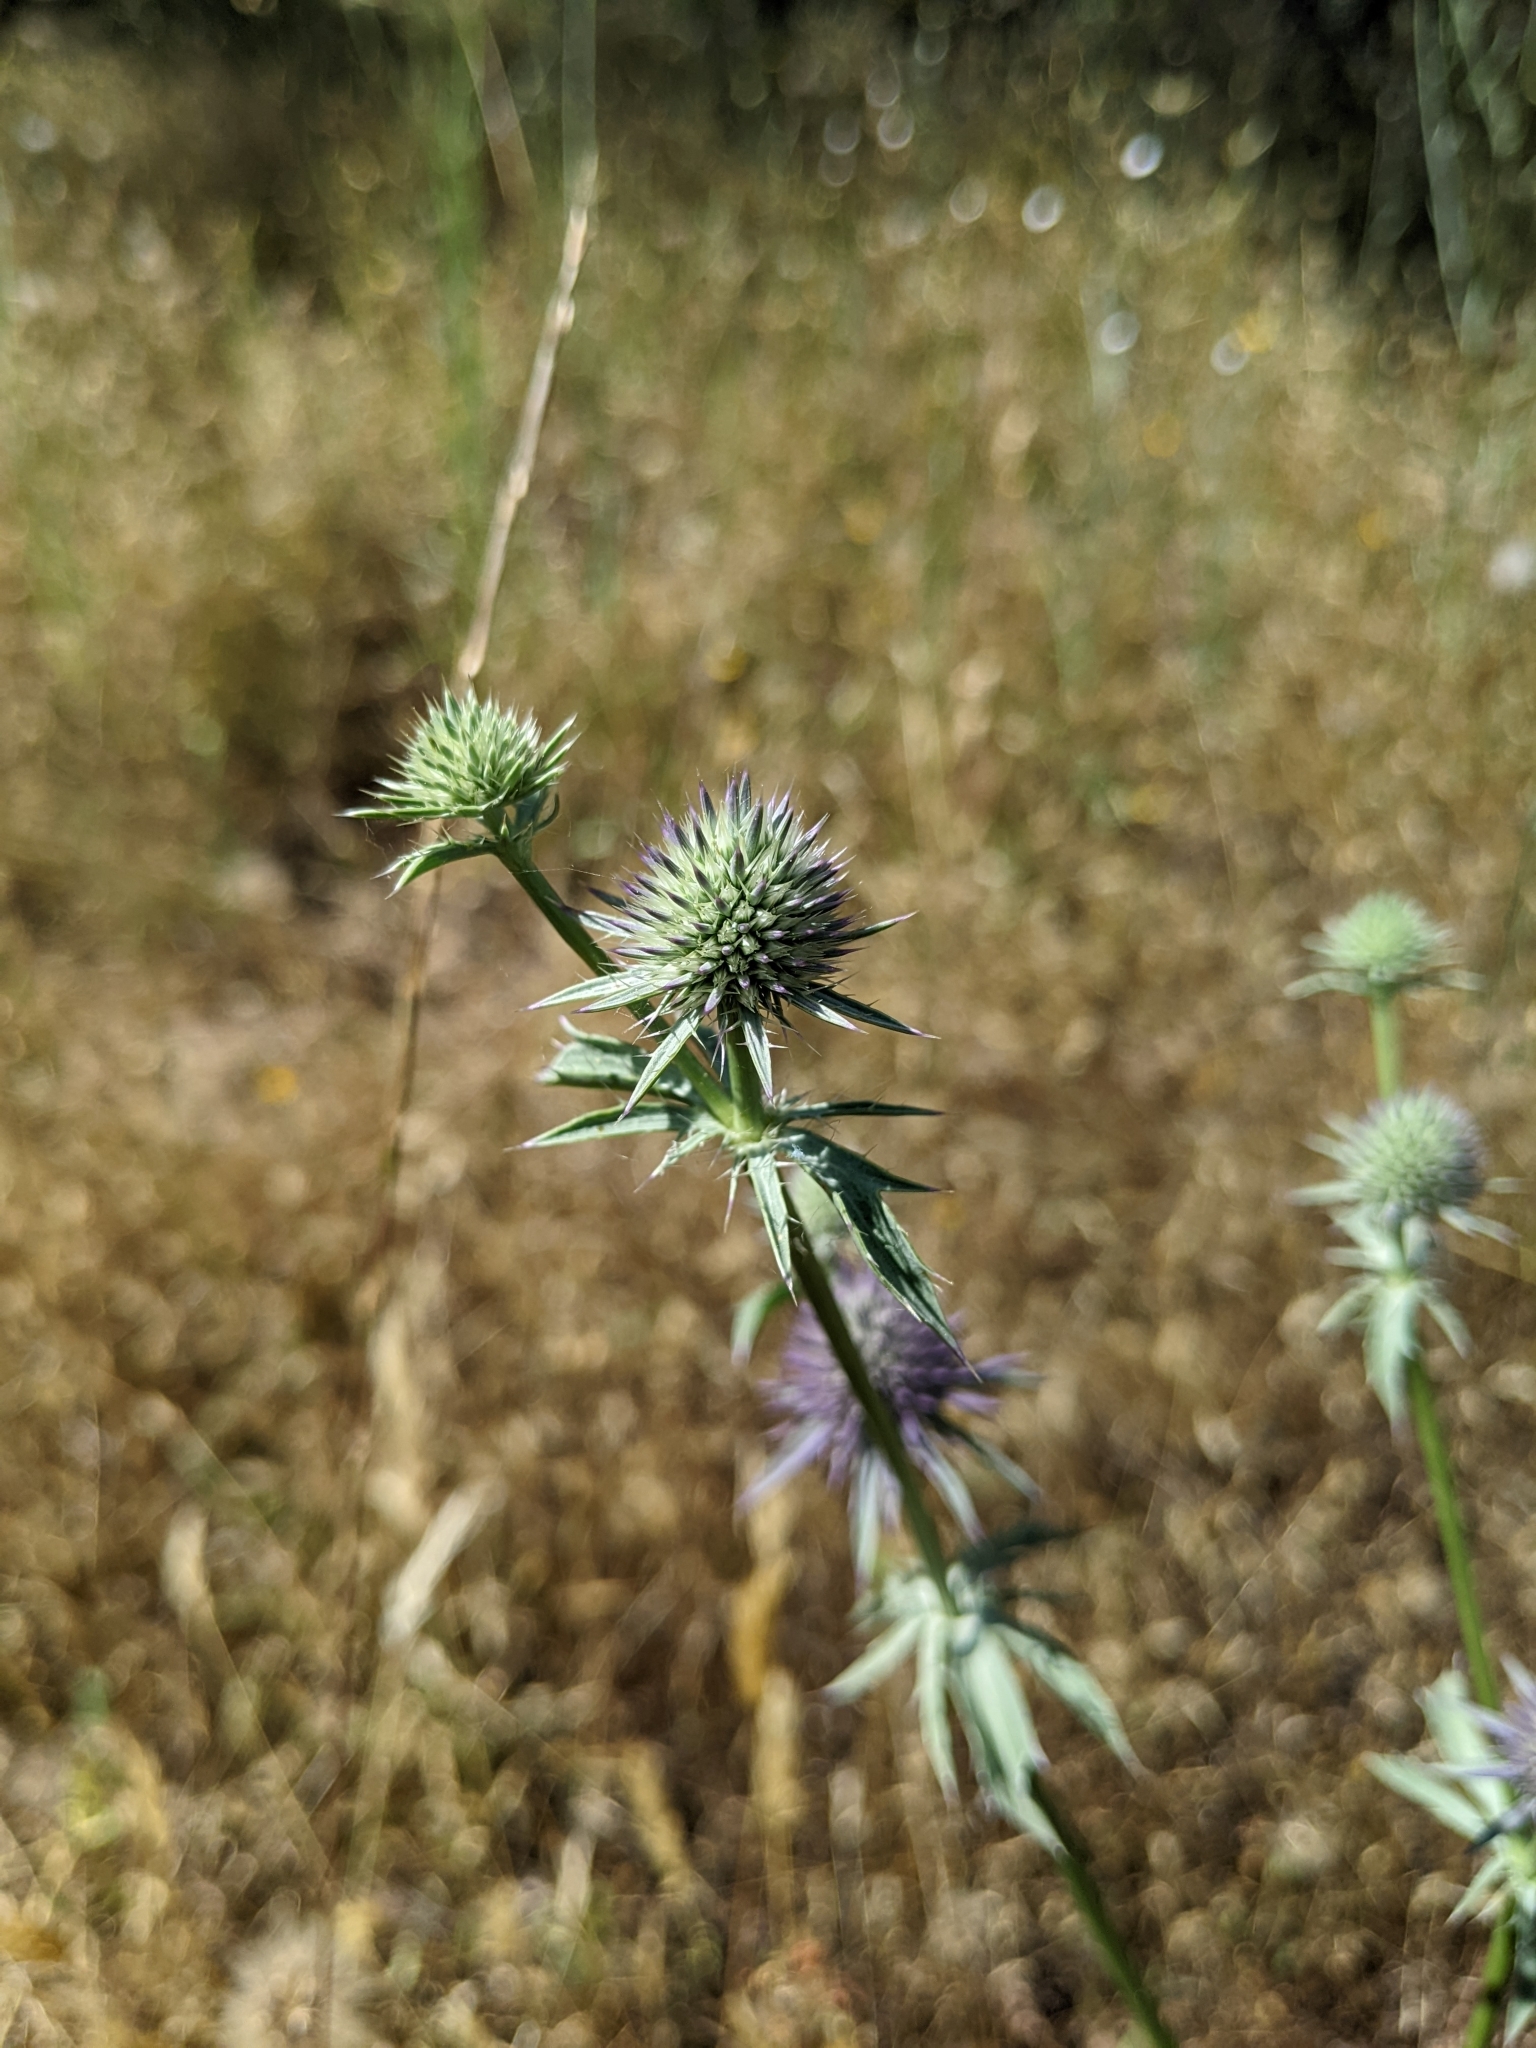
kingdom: Plantae
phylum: Tracheophyta
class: Magnoliopsida
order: Apiales
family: Apiaceae
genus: Eryngium
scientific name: Eryngium articulatum
